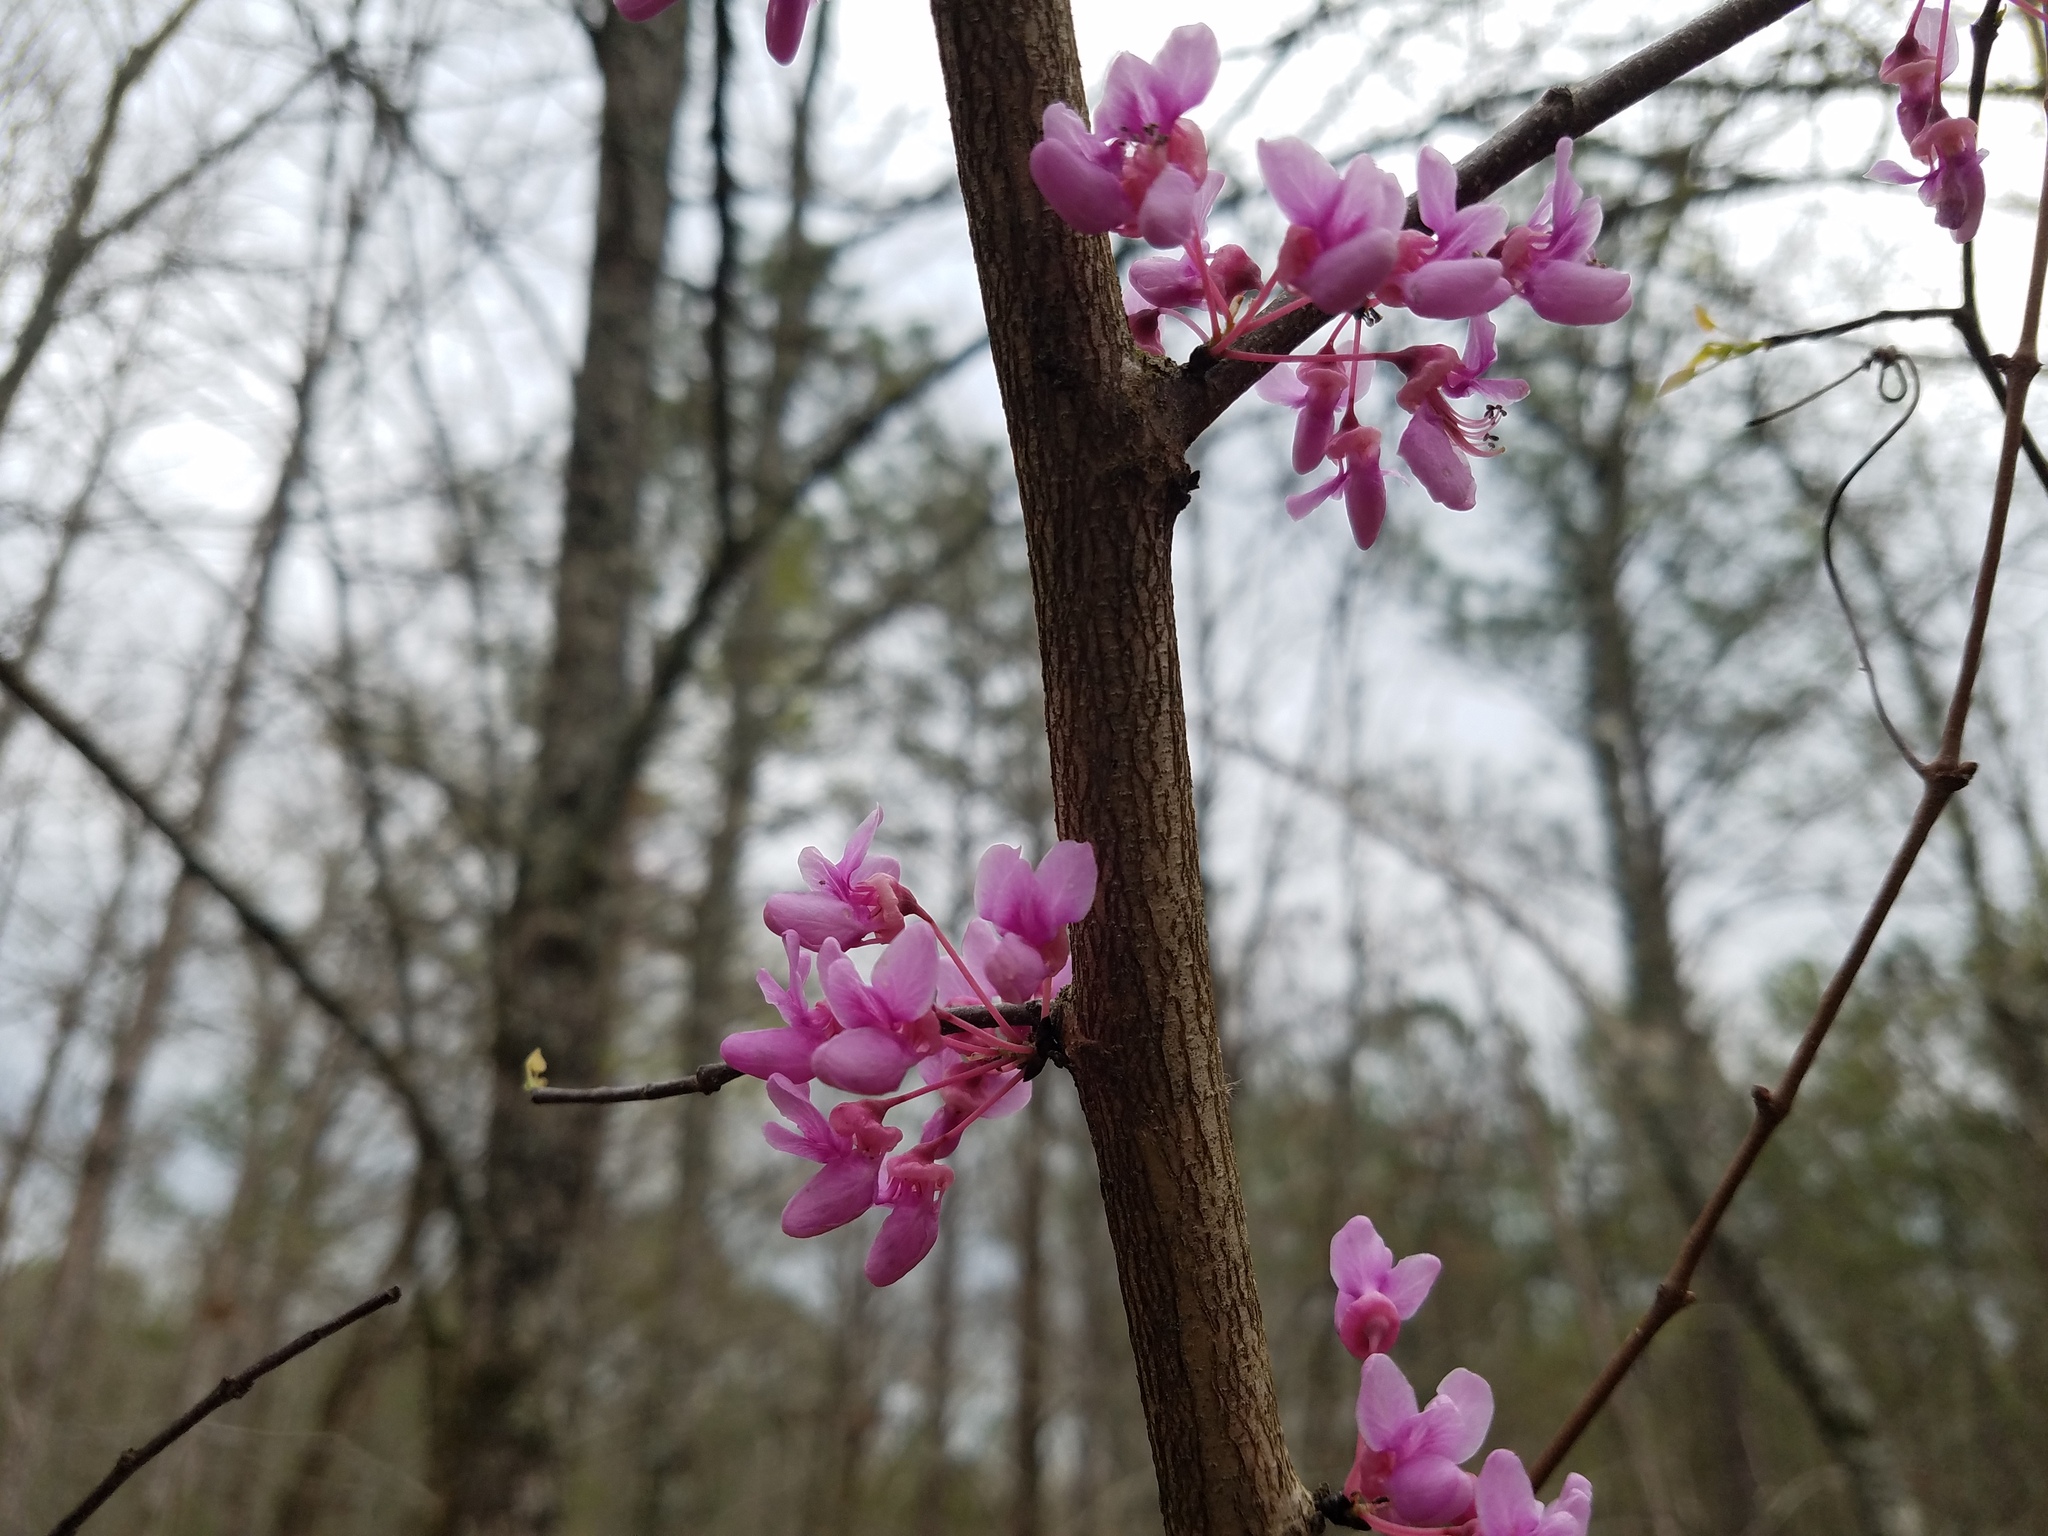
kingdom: Plantae
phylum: Tracheophyta
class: Magnoliopsida
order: Fabales
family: Fabaceae
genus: Cercis
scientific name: Cercis canadensis
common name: Eastern redbud
